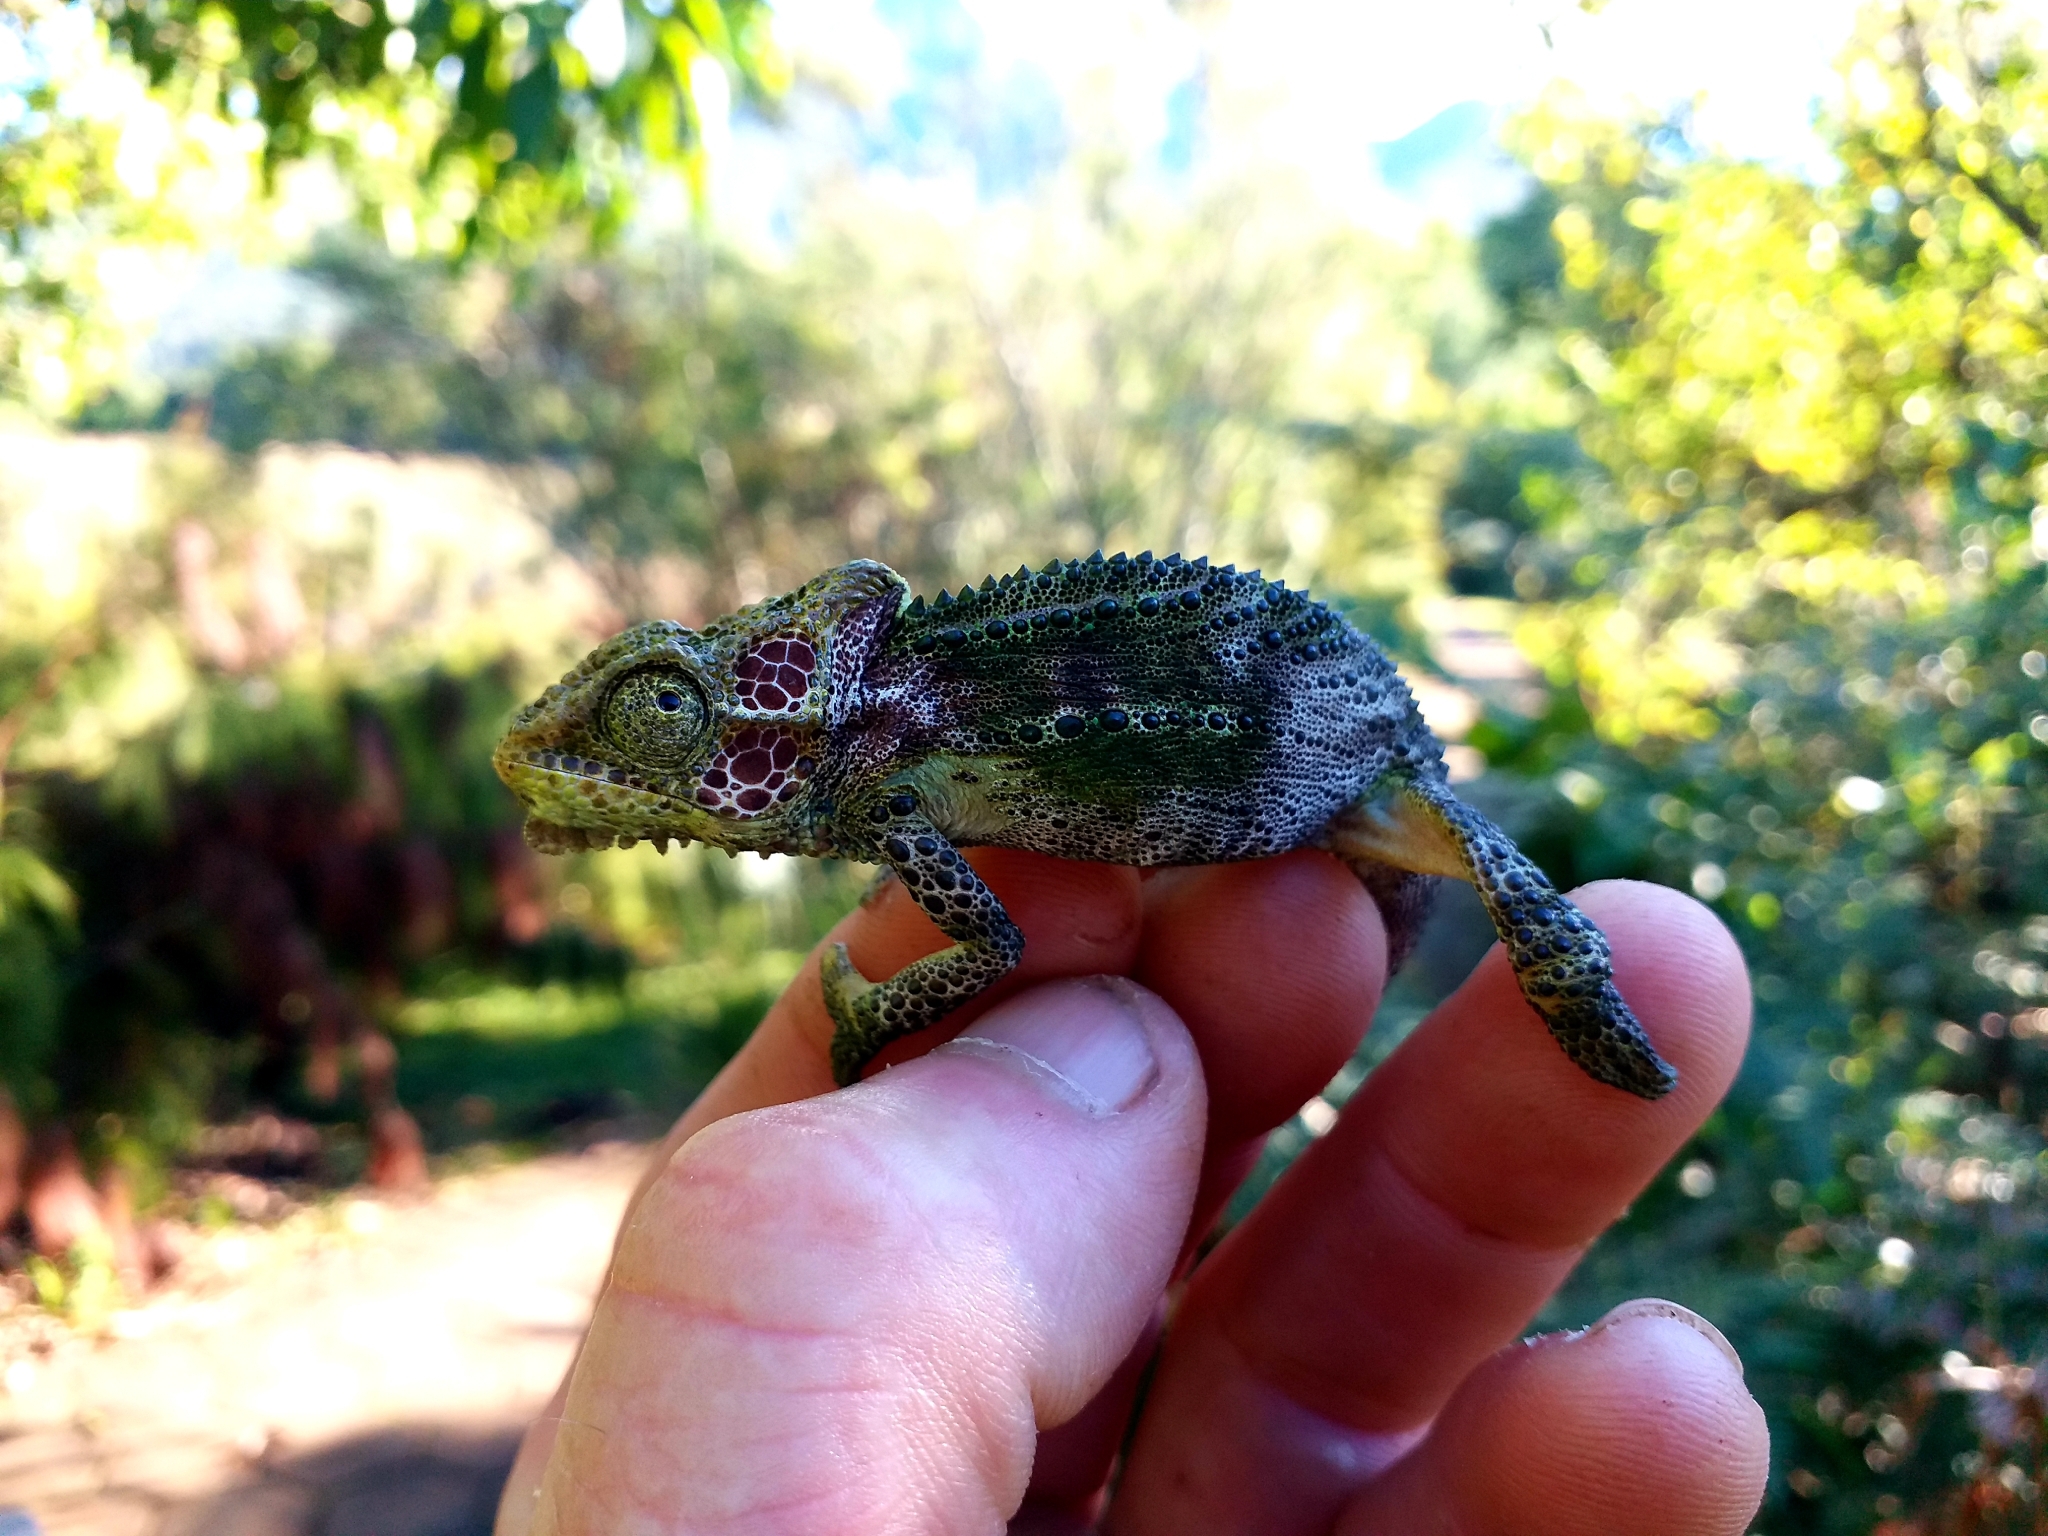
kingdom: Animalia
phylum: Chordata
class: Squamata
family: Chamaeleonidae
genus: Bradypodion
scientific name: Bradypodion damaranum
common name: Knysna dwarf chameleon
